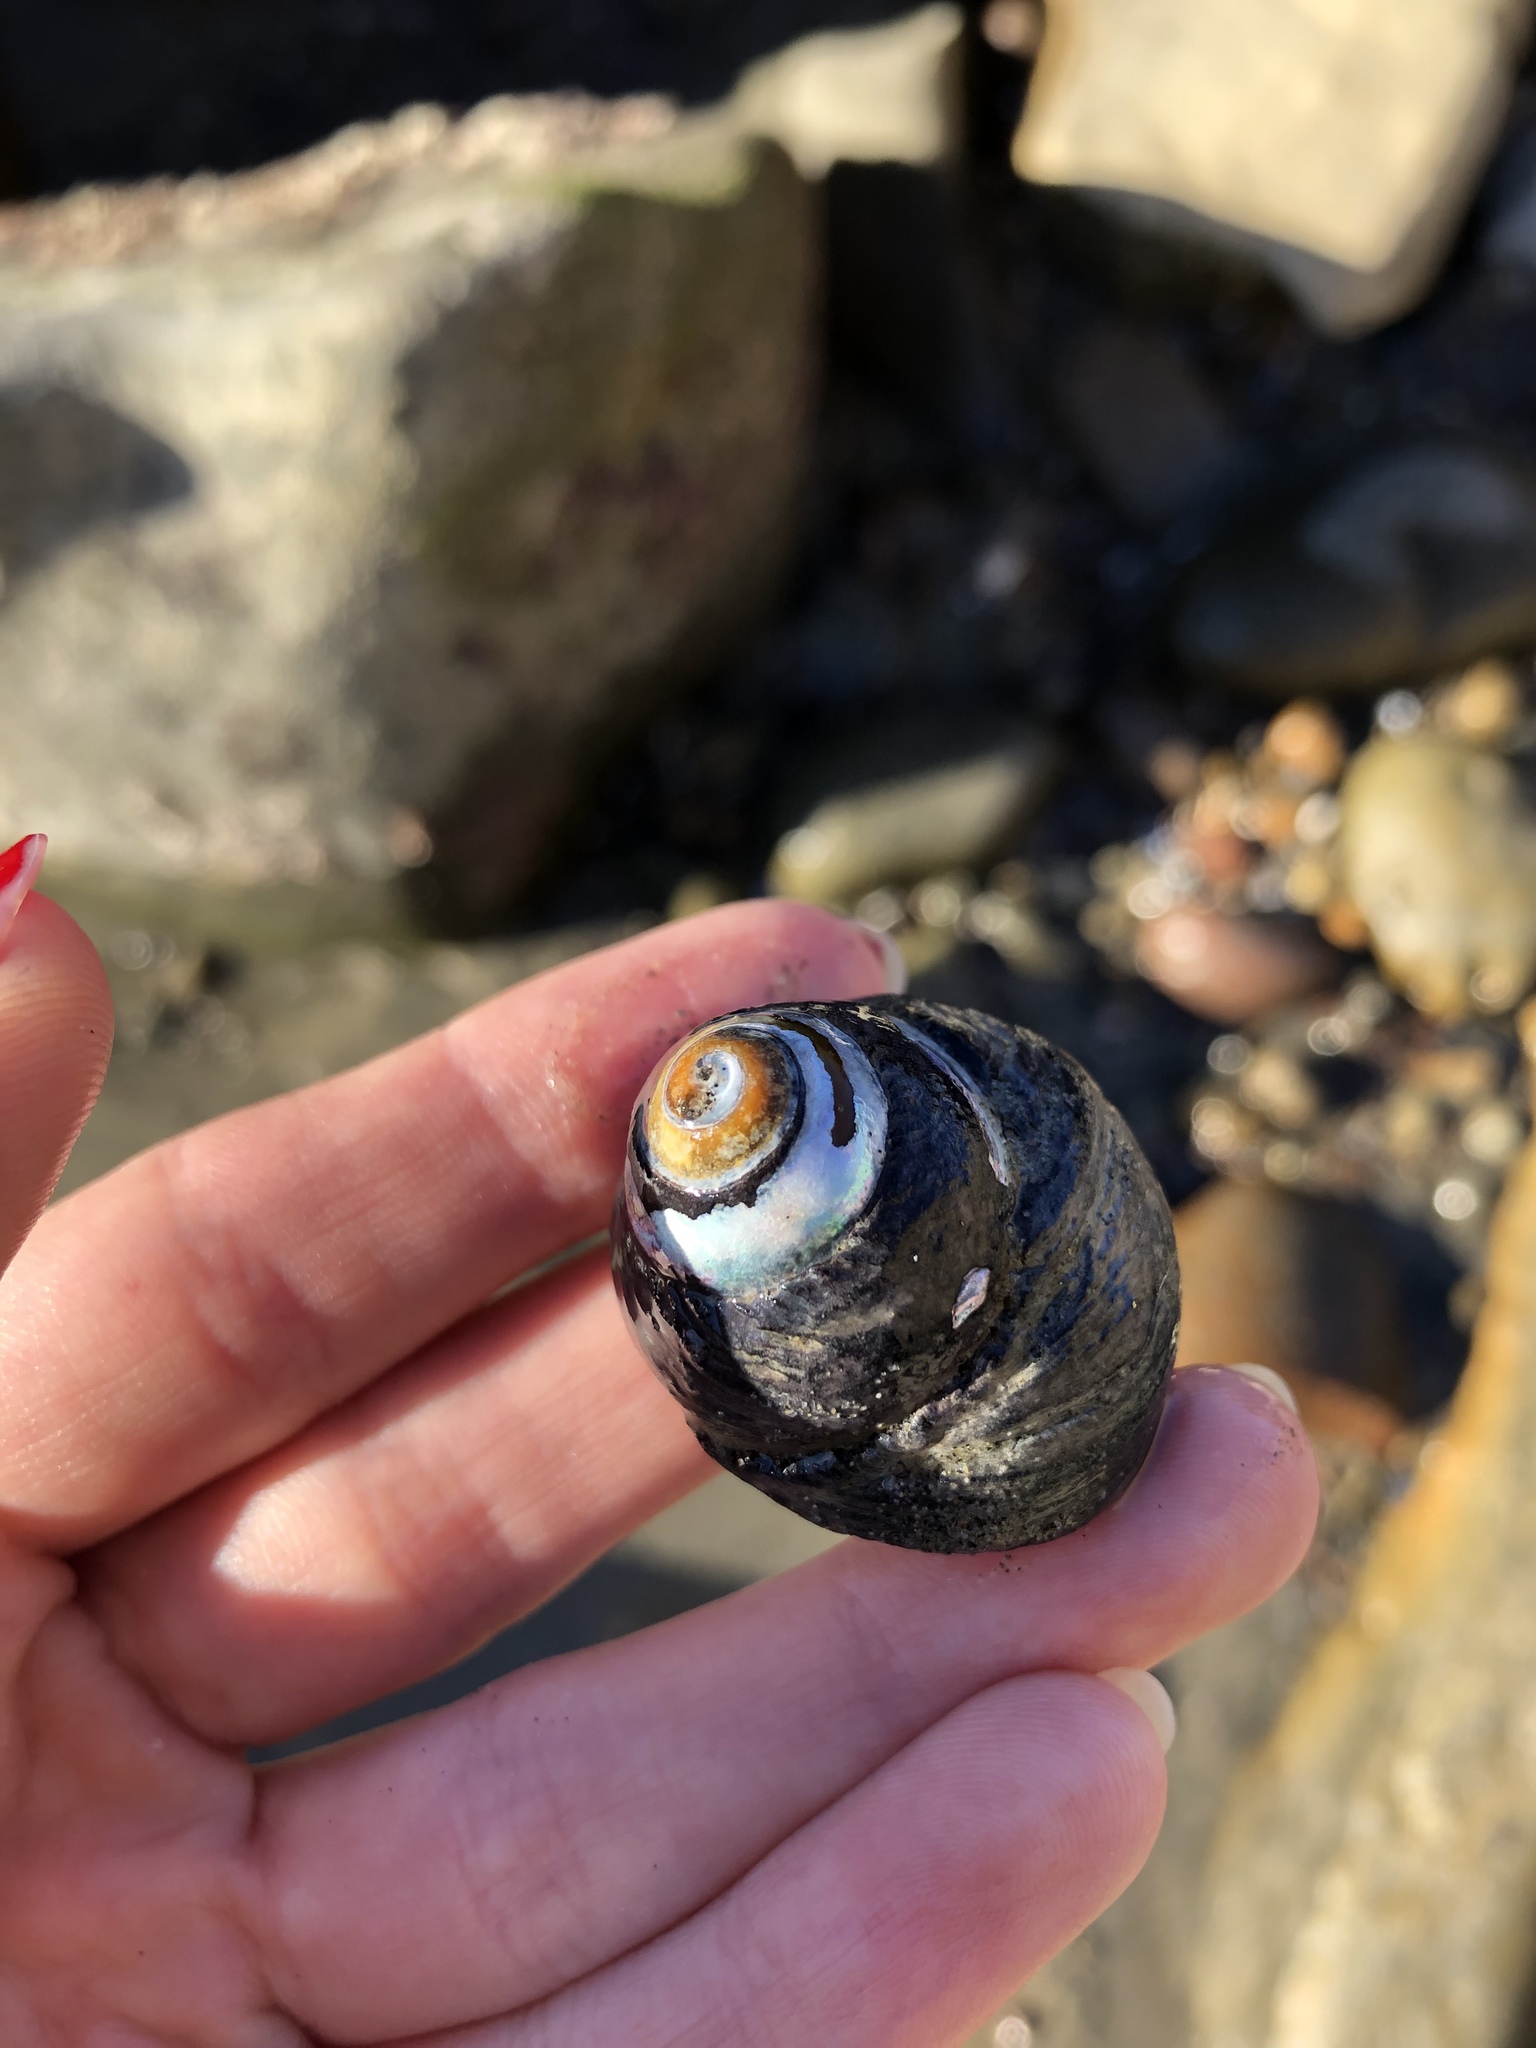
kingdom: Animalia
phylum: Mollusca
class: Gastropoda
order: Trochida
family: Tegulidae
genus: Tegula
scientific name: Tegula funebralis
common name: Black tegula
